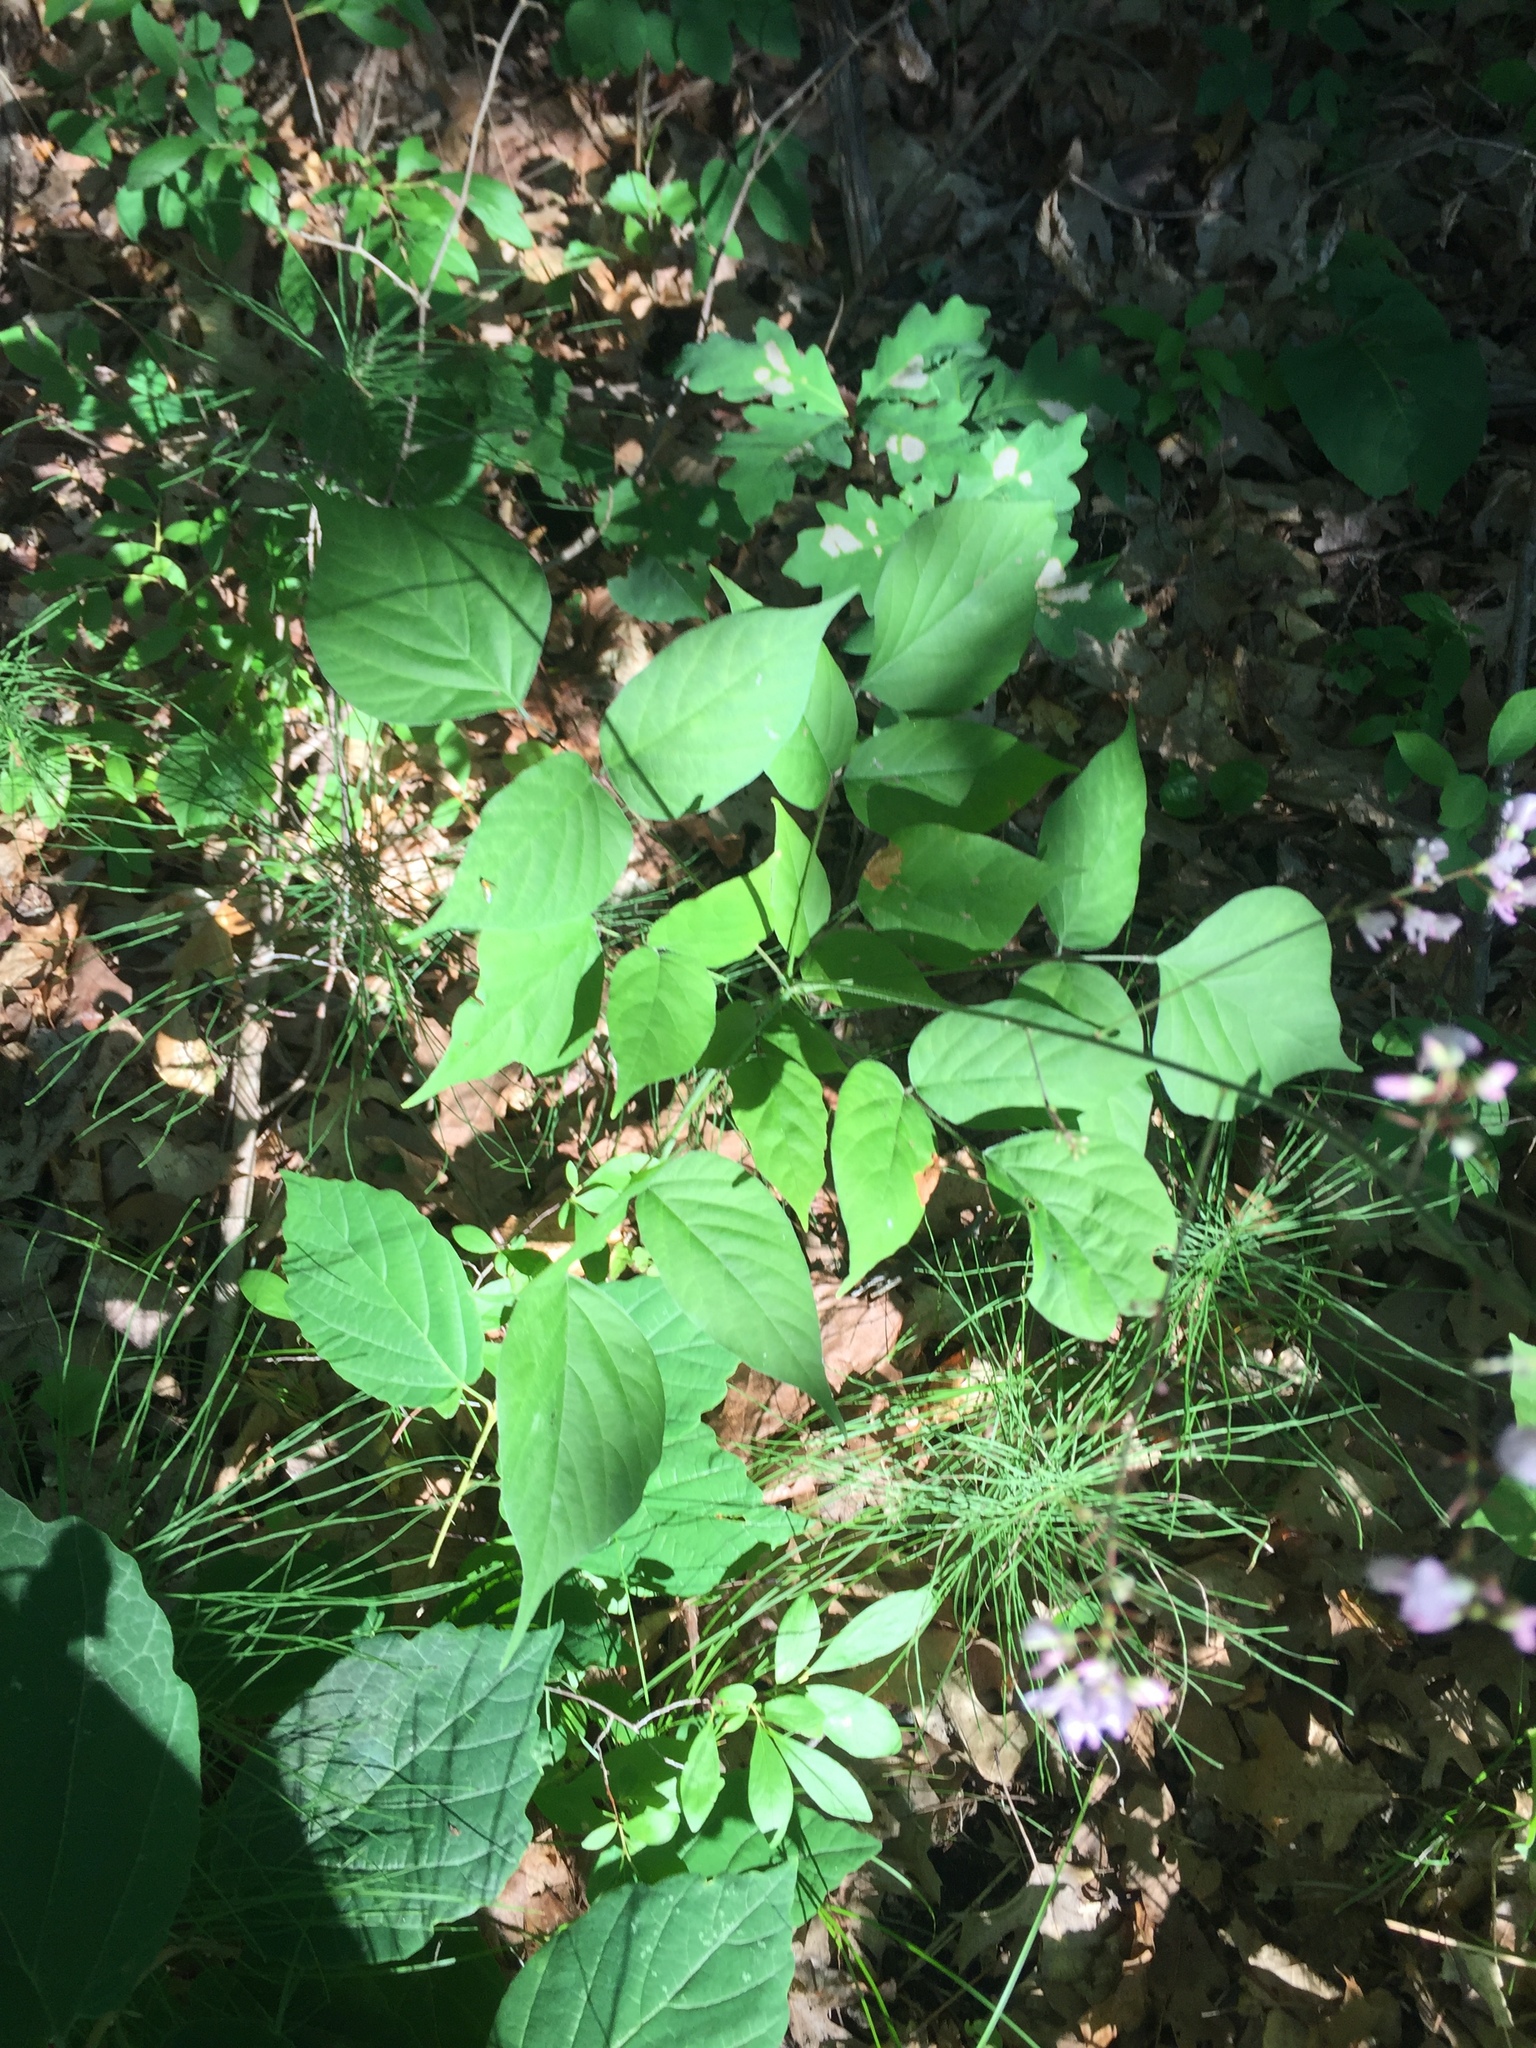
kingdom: Plantae
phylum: Tracheophyta
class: Magnoliopsida
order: Fabales
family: Fabaceae
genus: Hylodesmum
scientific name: Hylodesmum glutinosum
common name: Clustered-leaved tick-trefoil
